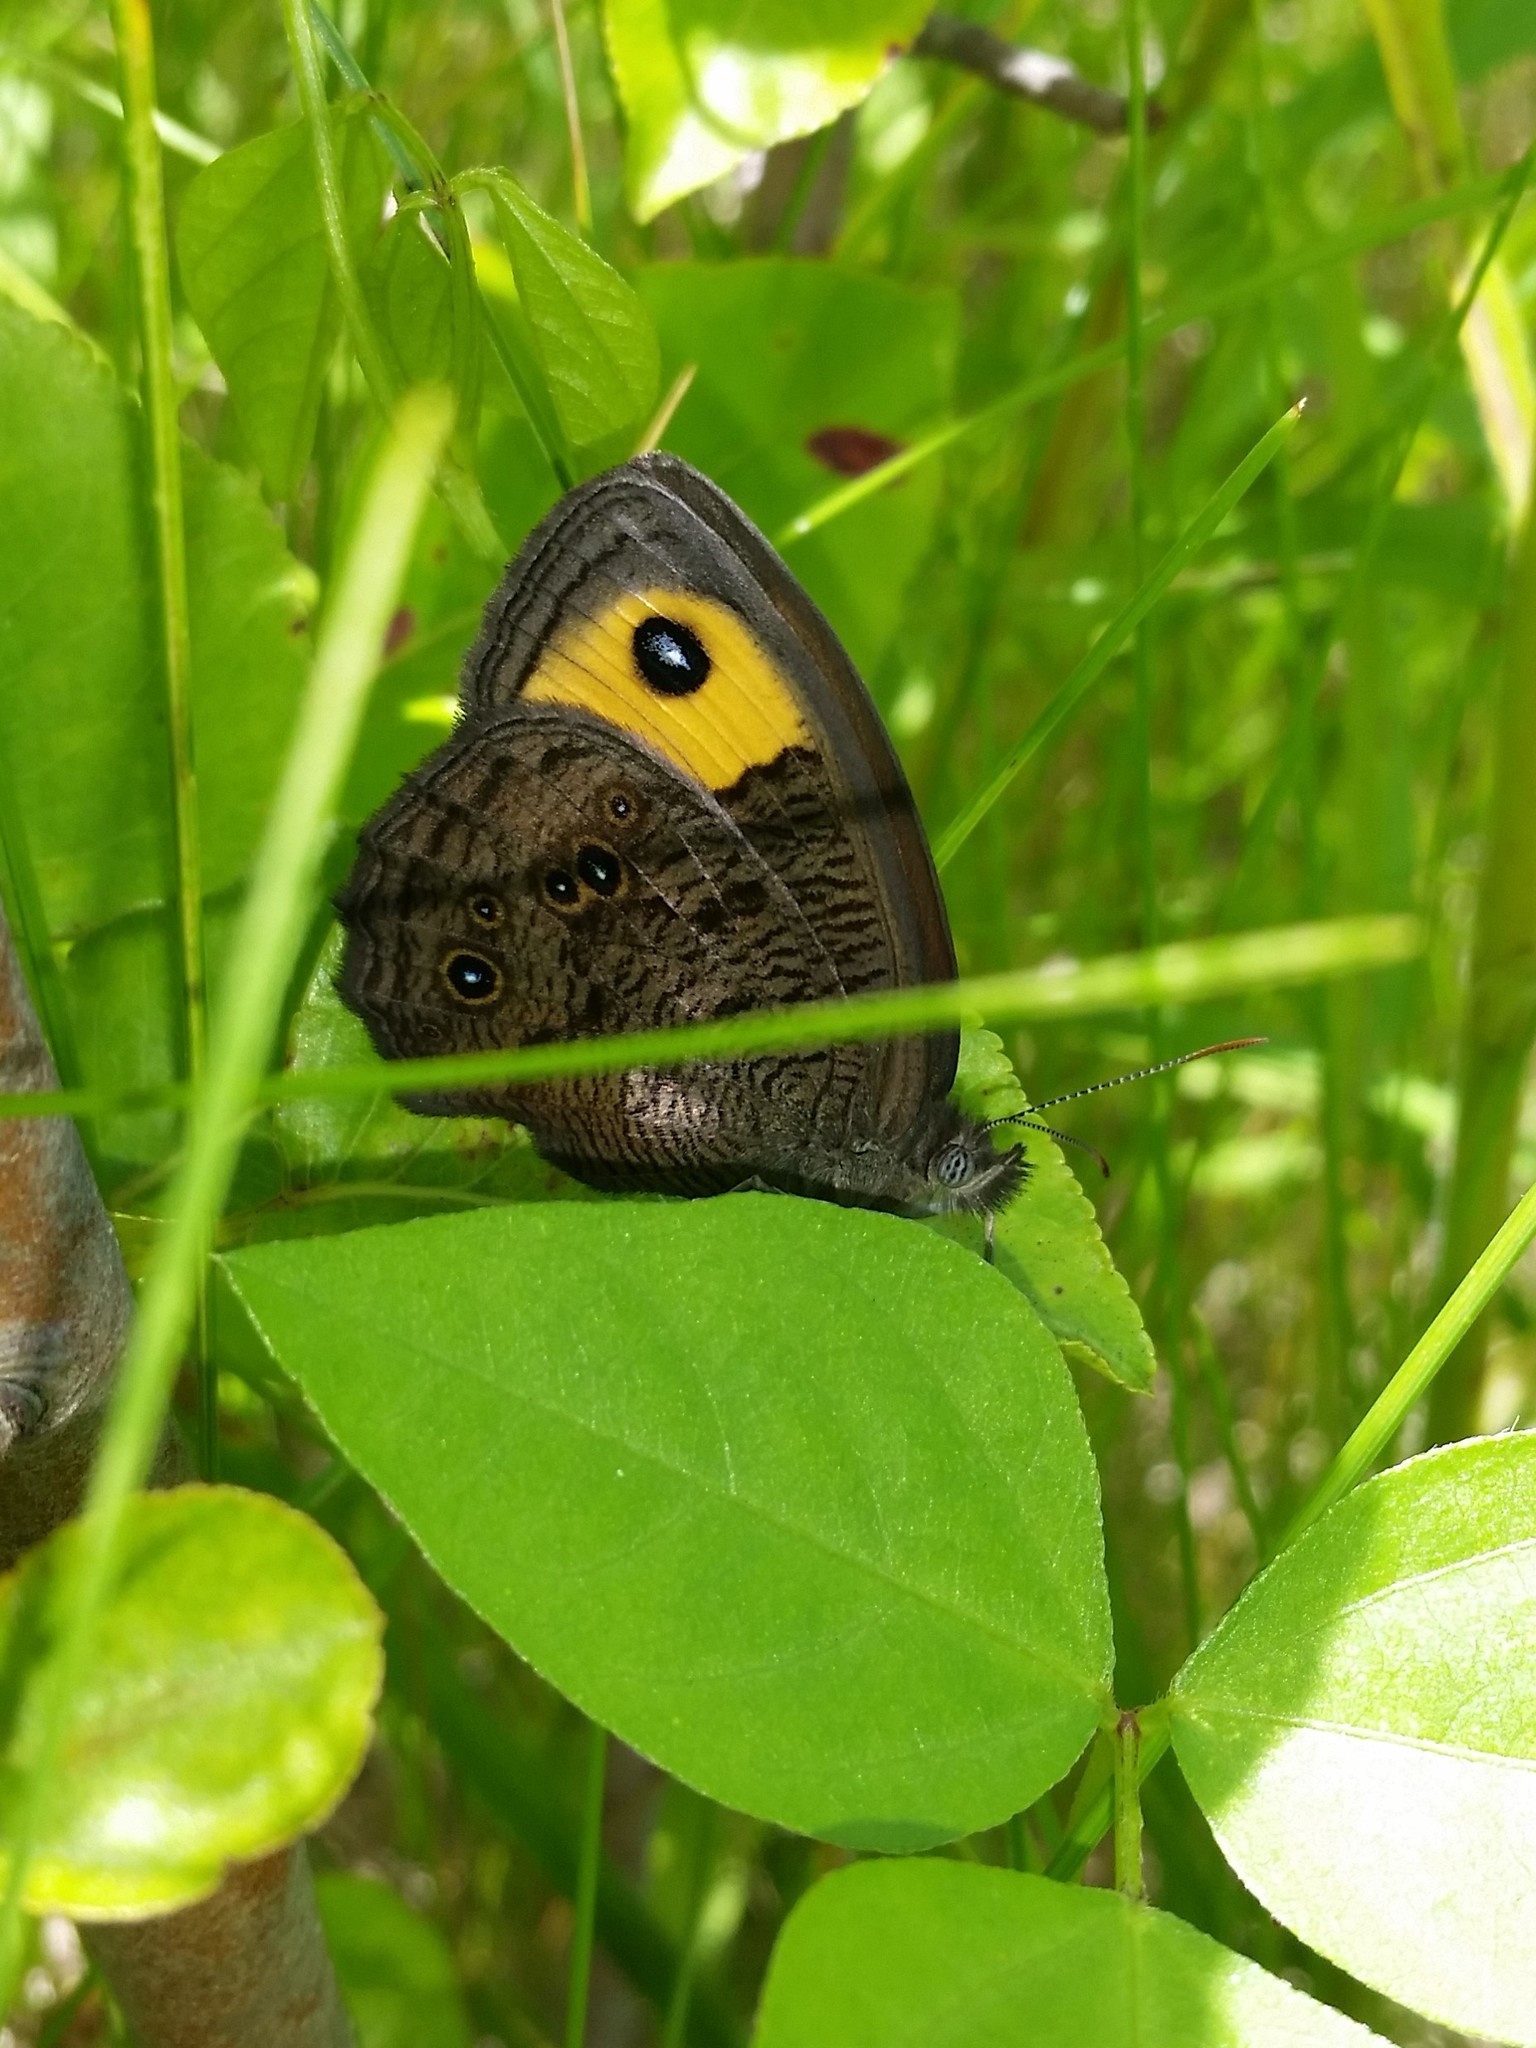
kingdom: Animalia
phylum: Arthropoda
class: Insecta
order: Lepidoptera
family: Nymphalidae
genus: Cercyonis
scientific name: Cercyonis pegala
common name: Common wood-nymph
